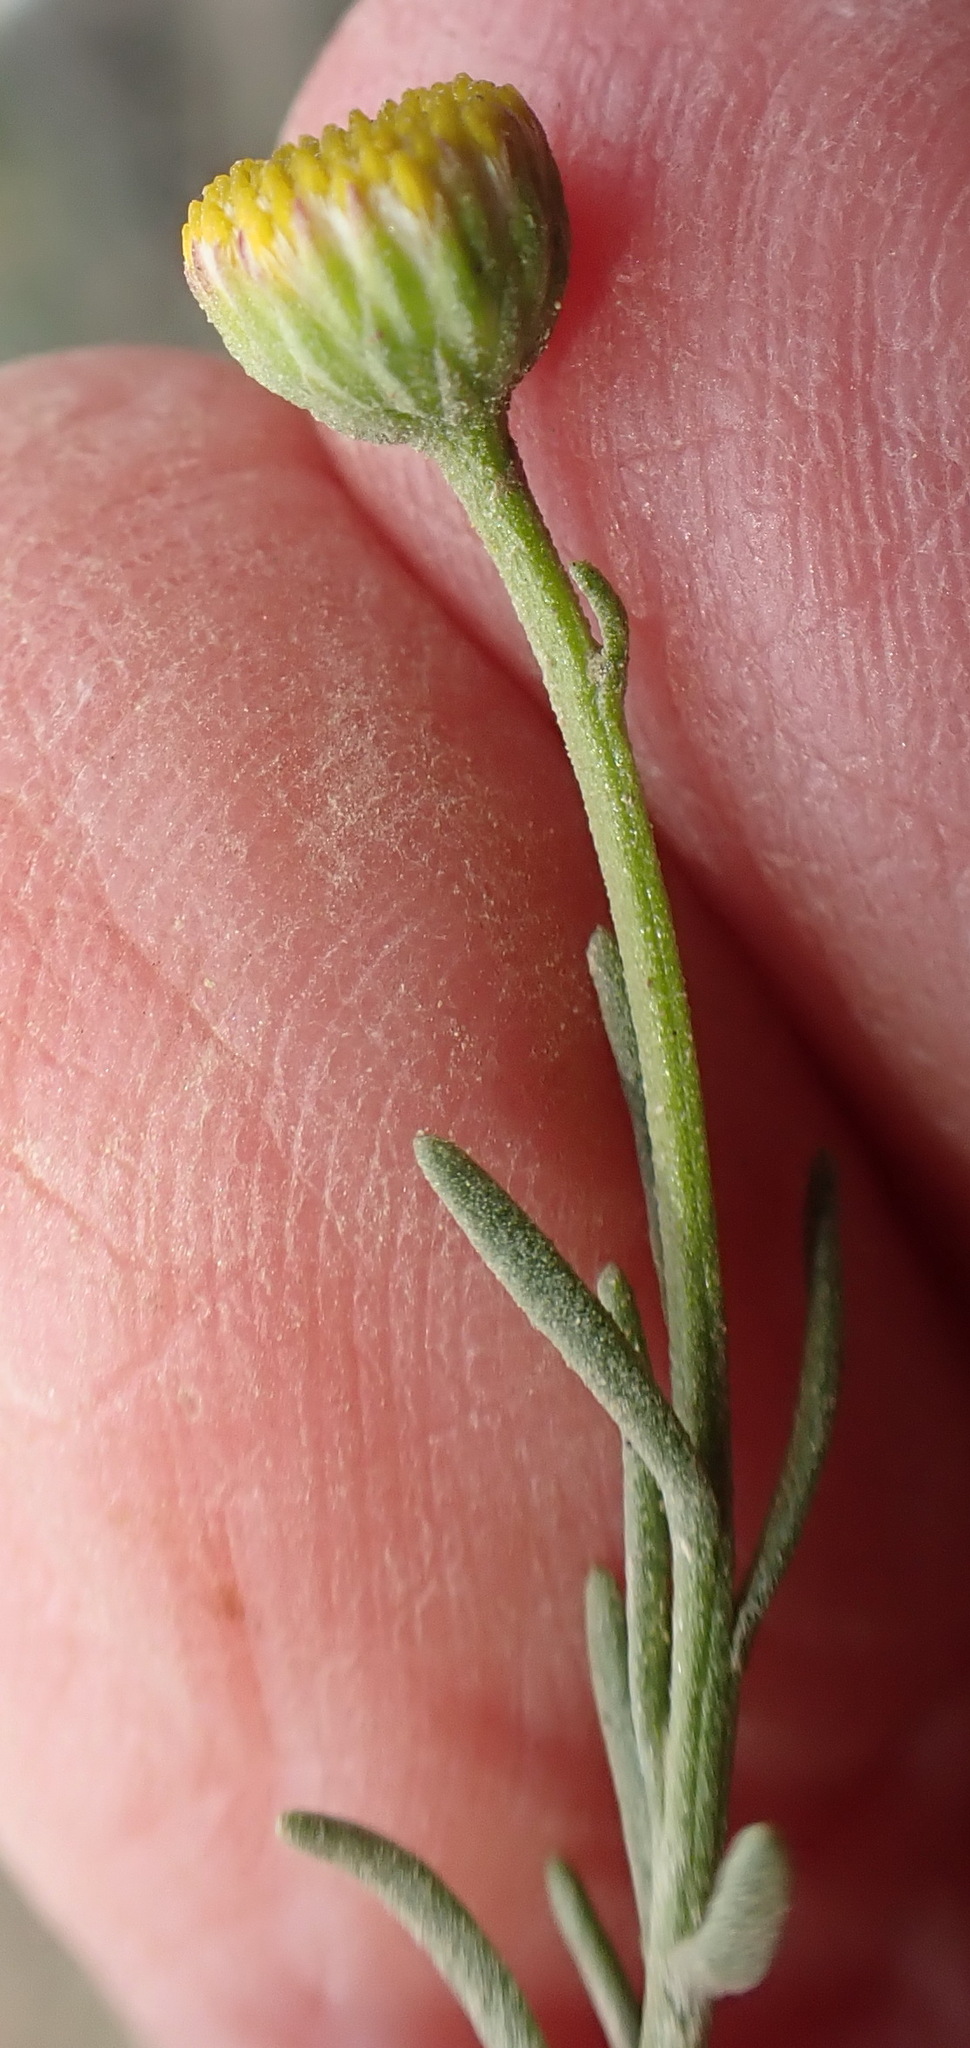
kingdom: Plantae
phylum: Tracheophyta
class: Magnoliopsida
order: Asterales
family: Asteraceae
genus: Chrysocoma
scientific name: Chrysocoma ciliata
